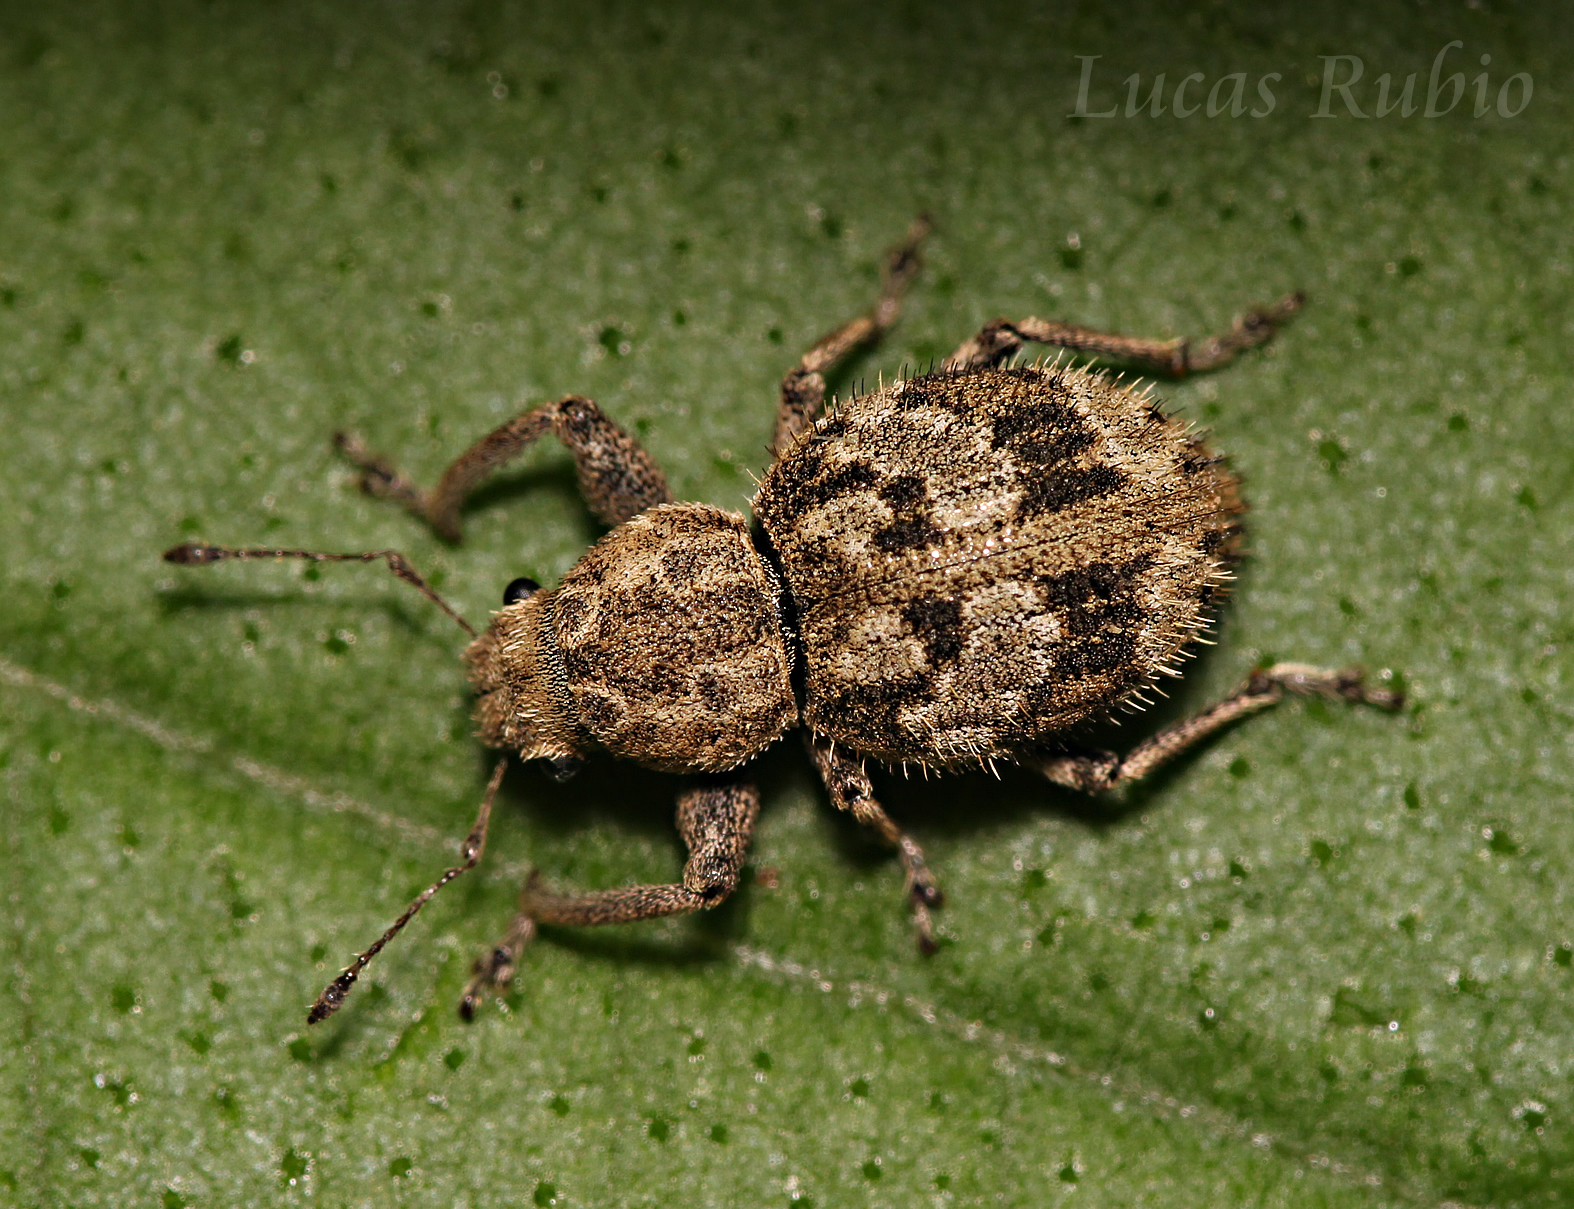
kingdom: Animalia
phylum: Arthropoda
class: Insecta
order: Coleoptera
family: Curculionidae
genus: Pantomorus
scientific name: Pantomorus
